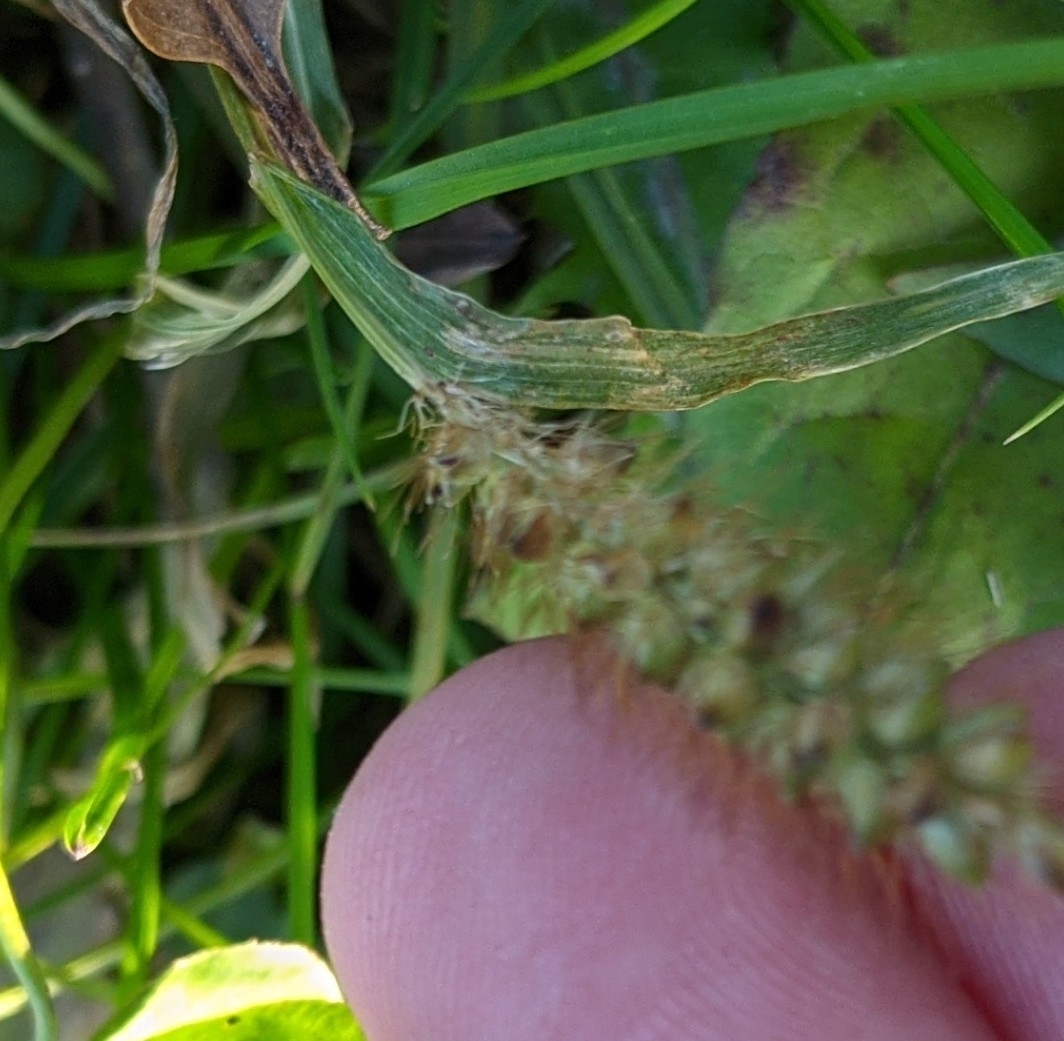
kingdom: Plantae
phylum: Tracheophyta
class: Liliopsida
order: Poales
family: Poaceae
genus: Setaria
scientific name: Setaria pumila
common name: Yellow bristle-grass
